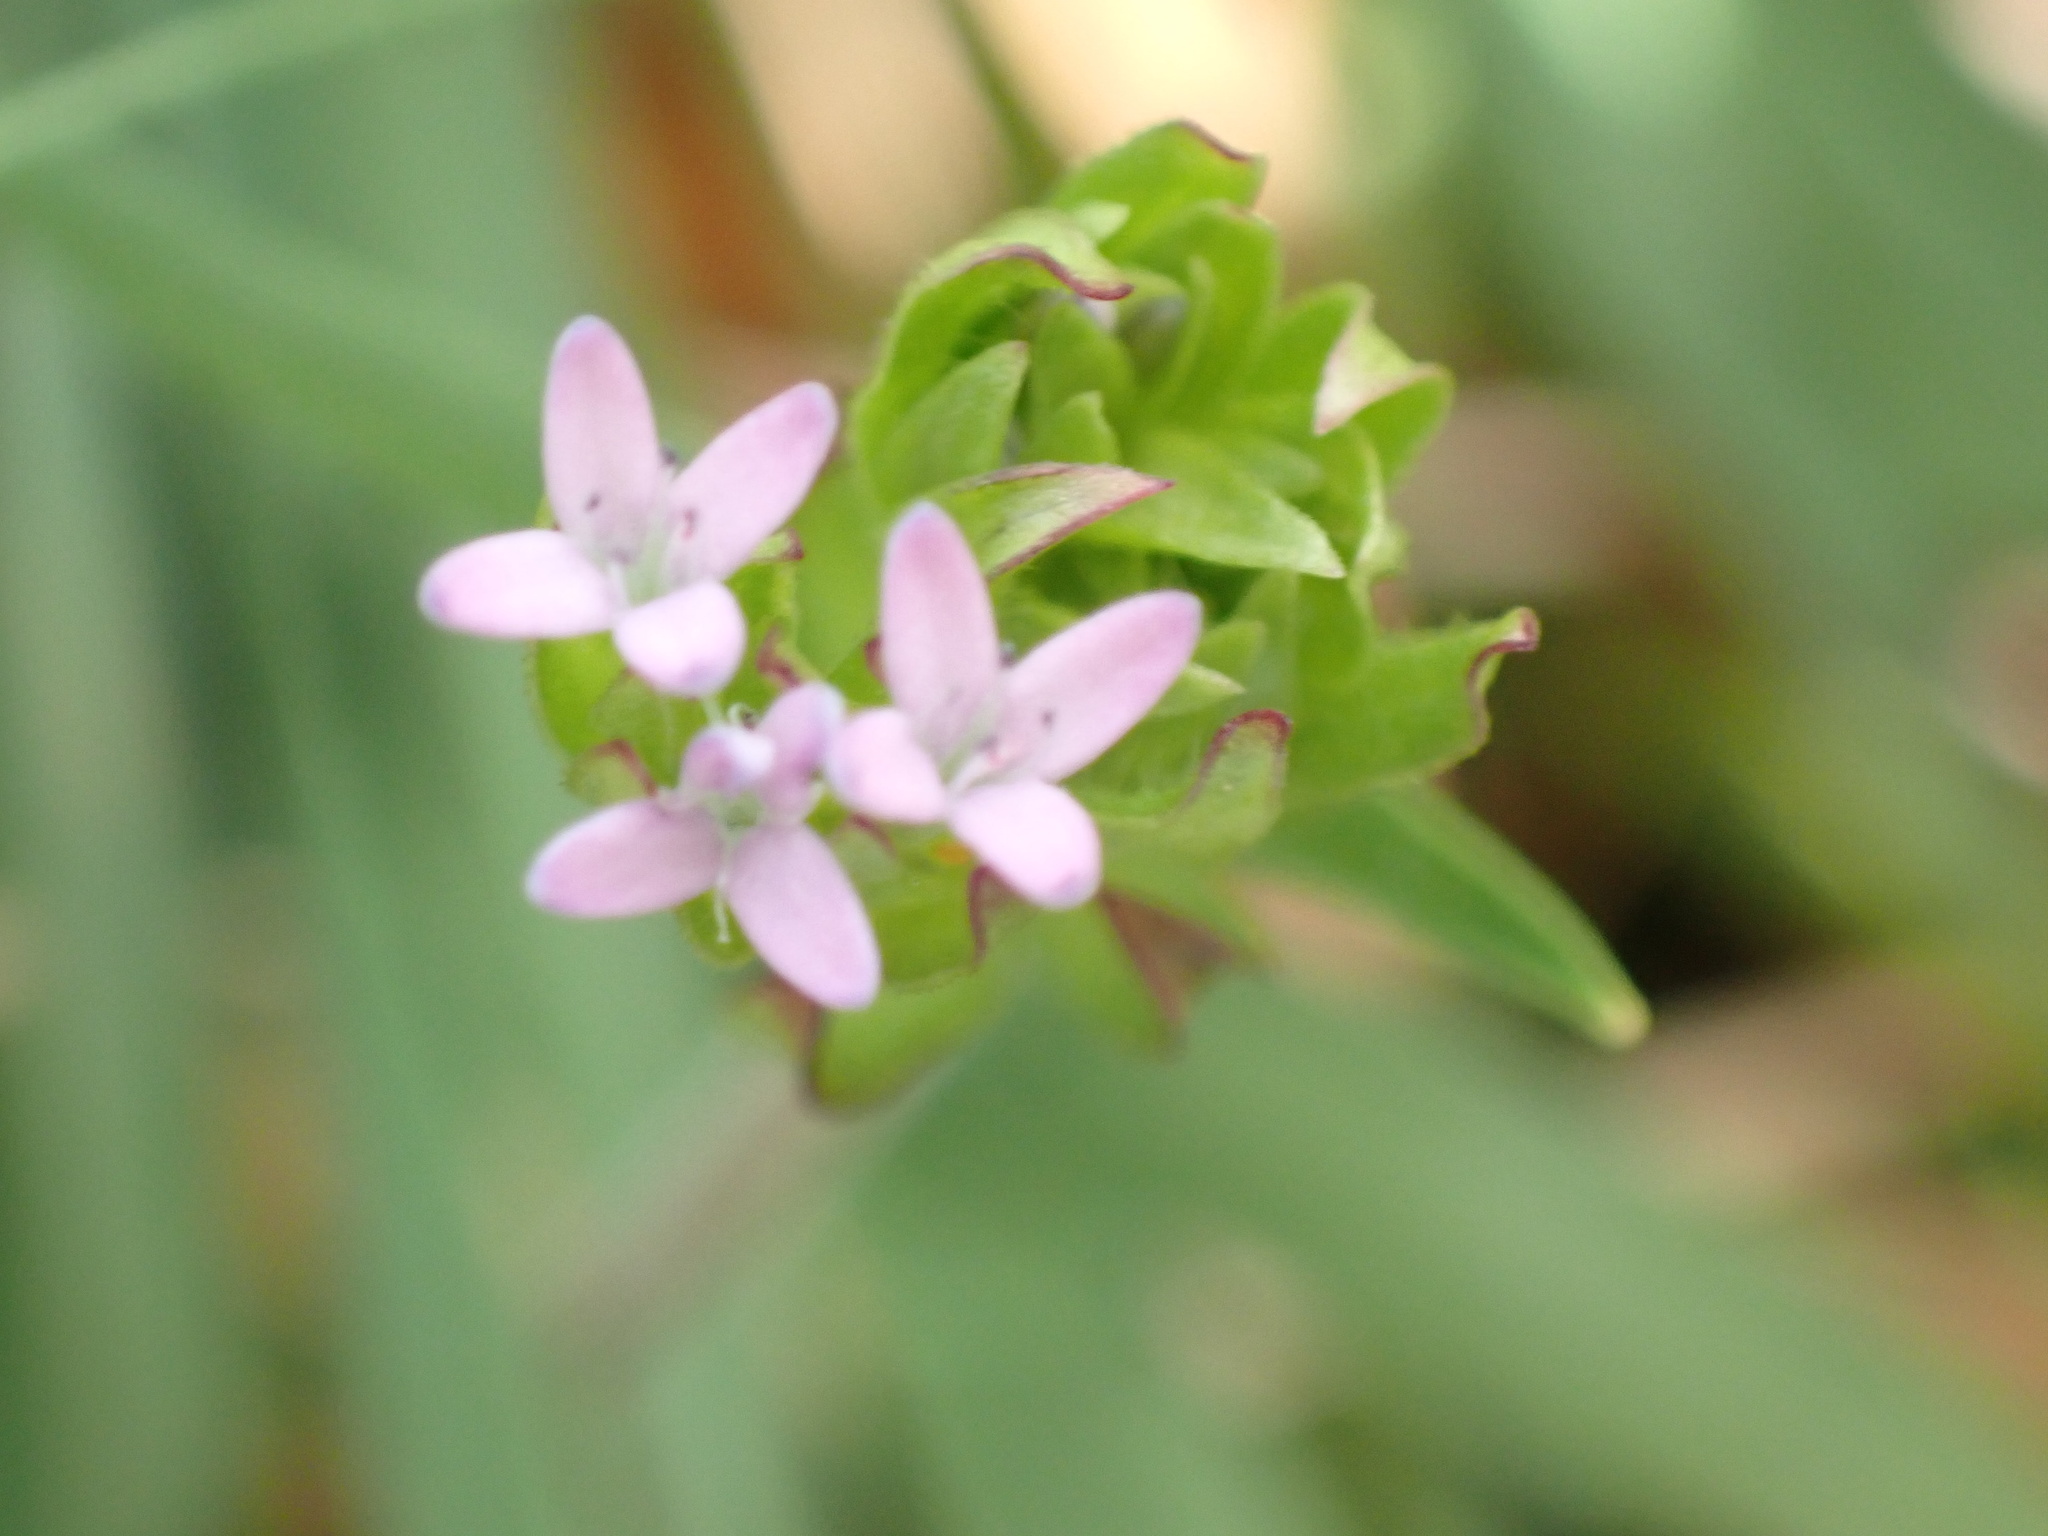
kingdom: Plantae
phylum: Tracheophyta
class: Magnoliopsida
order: Gentianales
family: Rubiaceae
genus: Sherardia
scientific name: Sherardia arvensis
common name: Field madder
